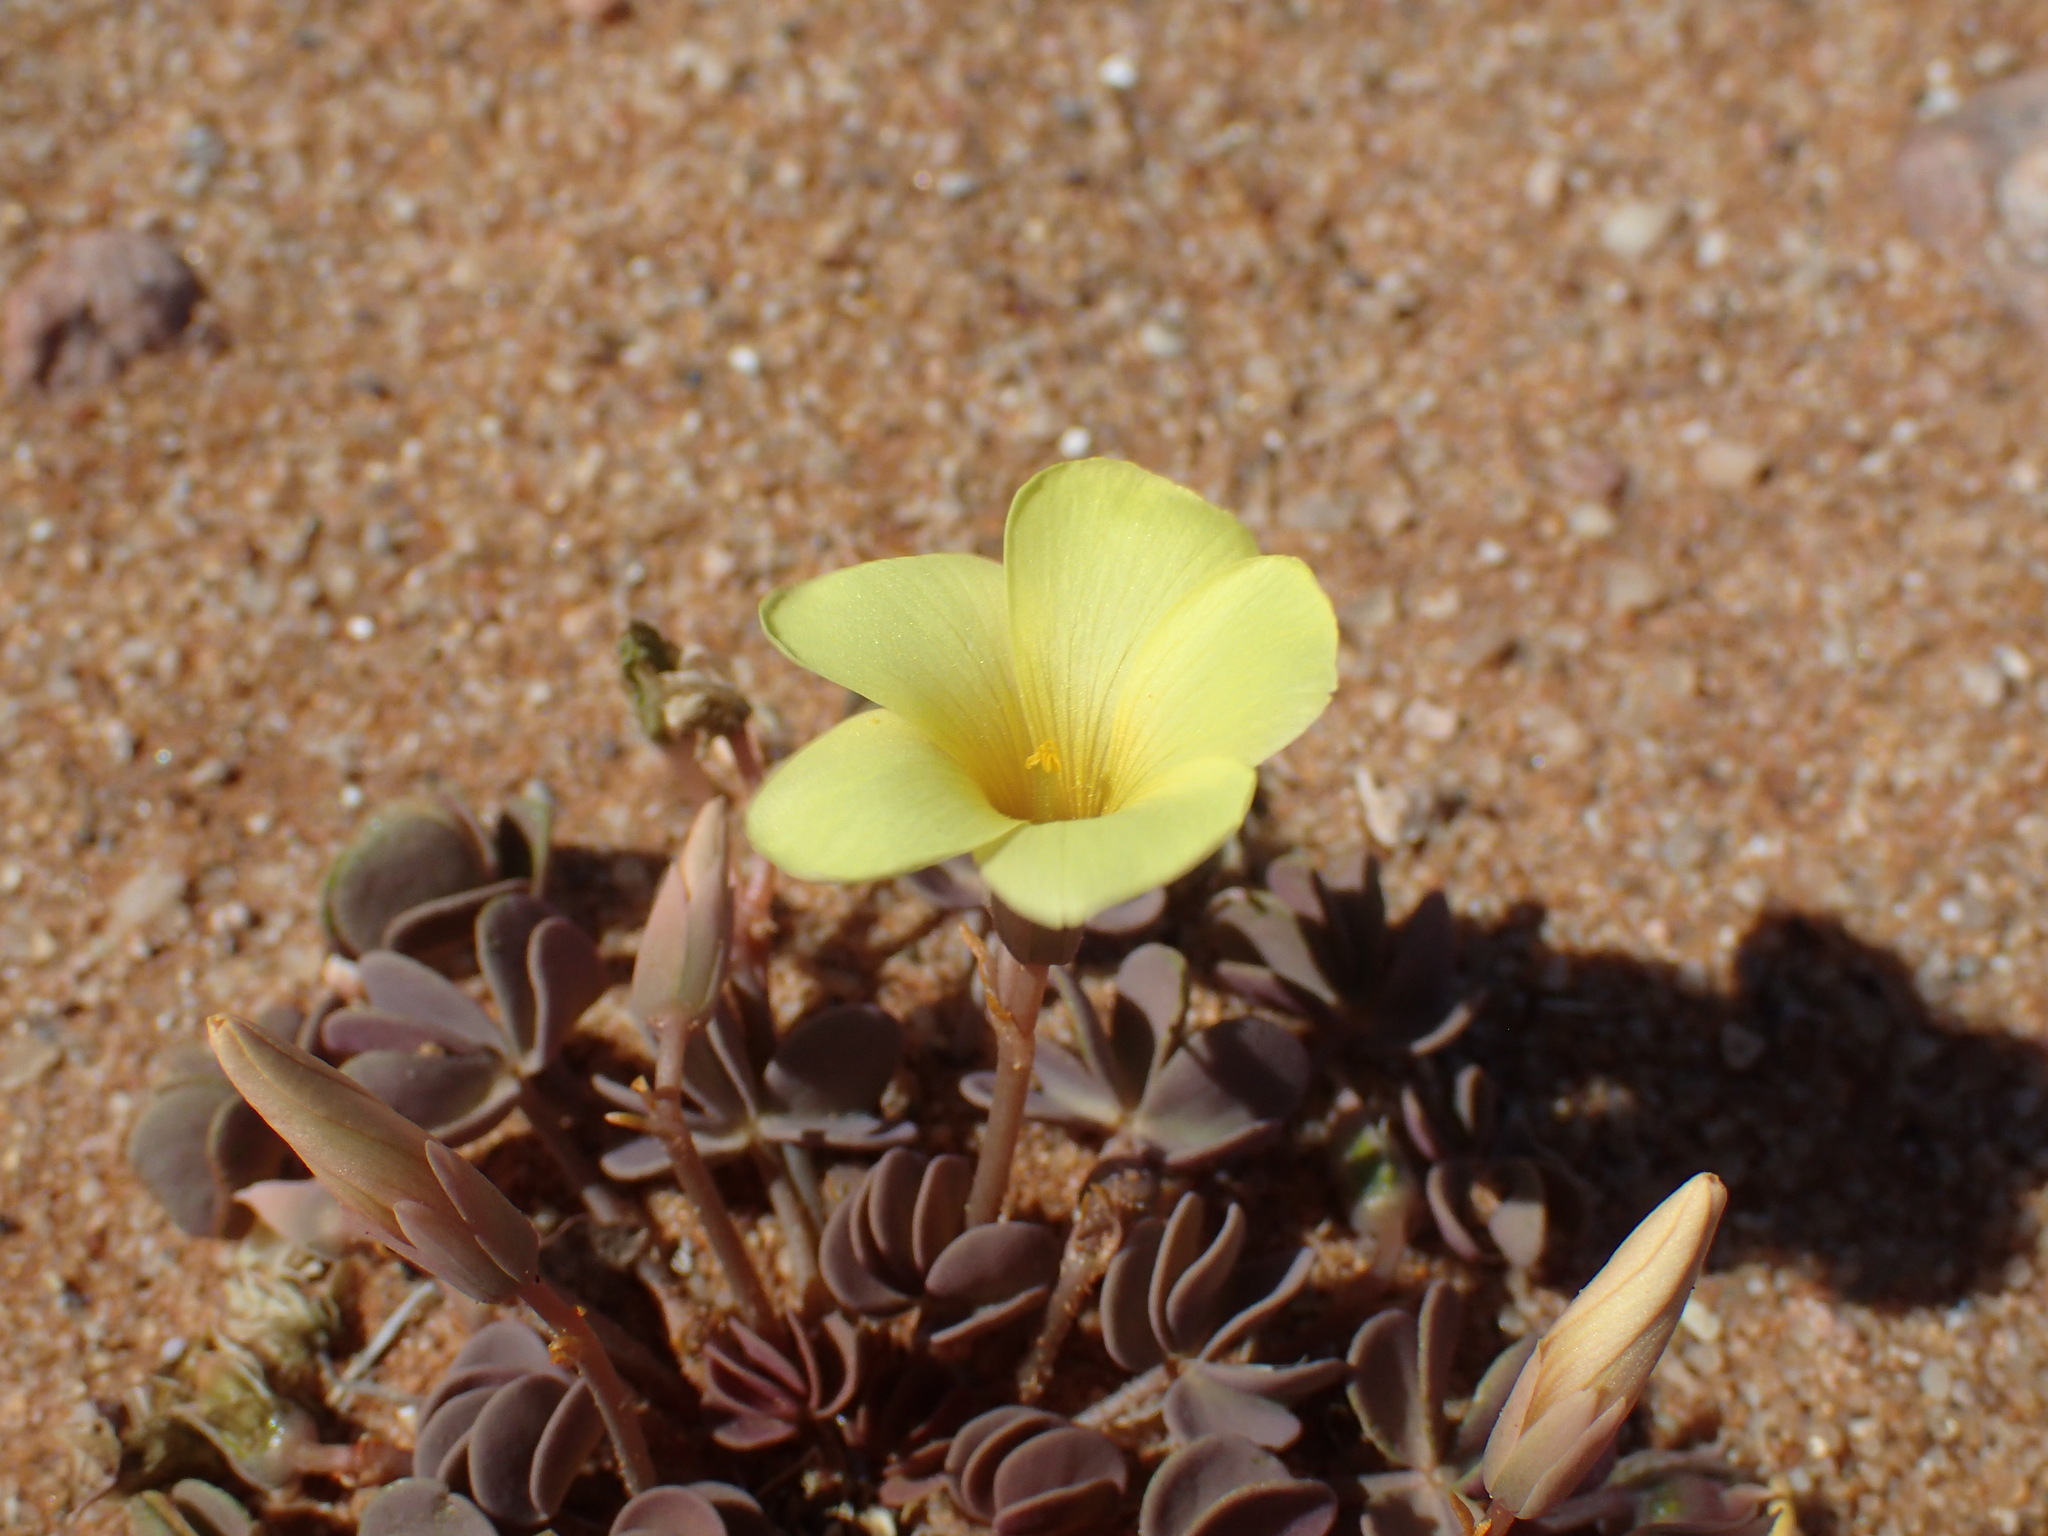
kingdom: Plantae
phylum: Tracheophyta
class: Magnoliopsida
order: Oxalidales
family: Oxalidaceae
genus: Oxalis
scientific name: Oxalis luederitzii
